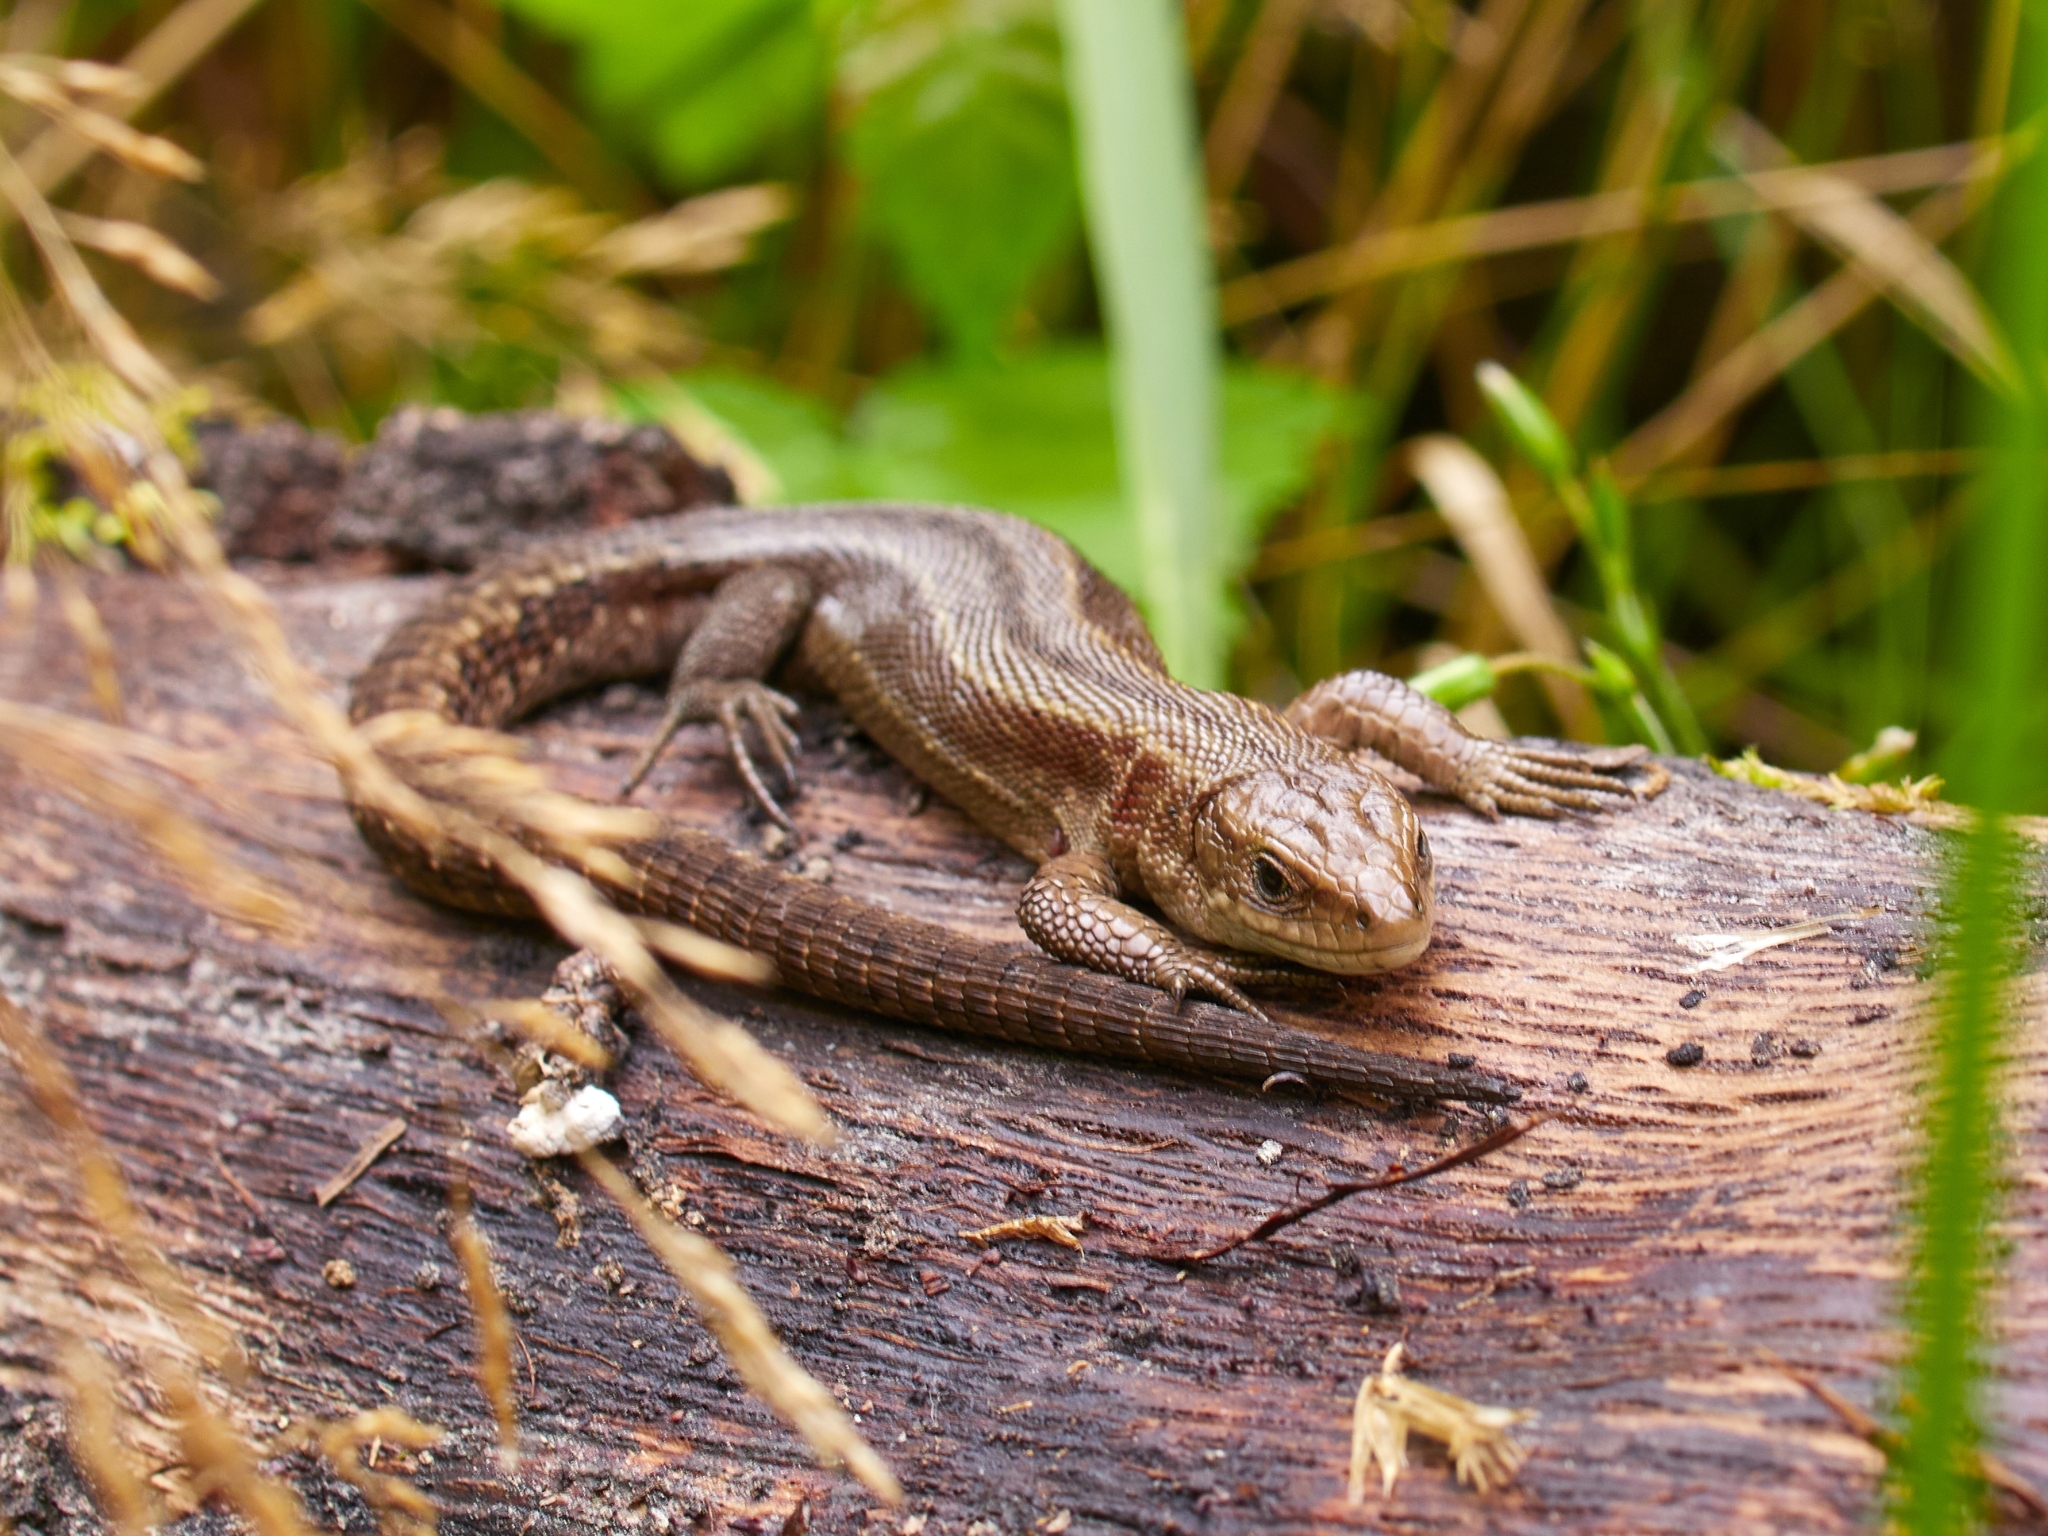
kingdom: Animalia
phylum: Chordata
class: Squamata
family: Lacertidae
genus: Zootoca
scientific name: Zootoca vivipara
